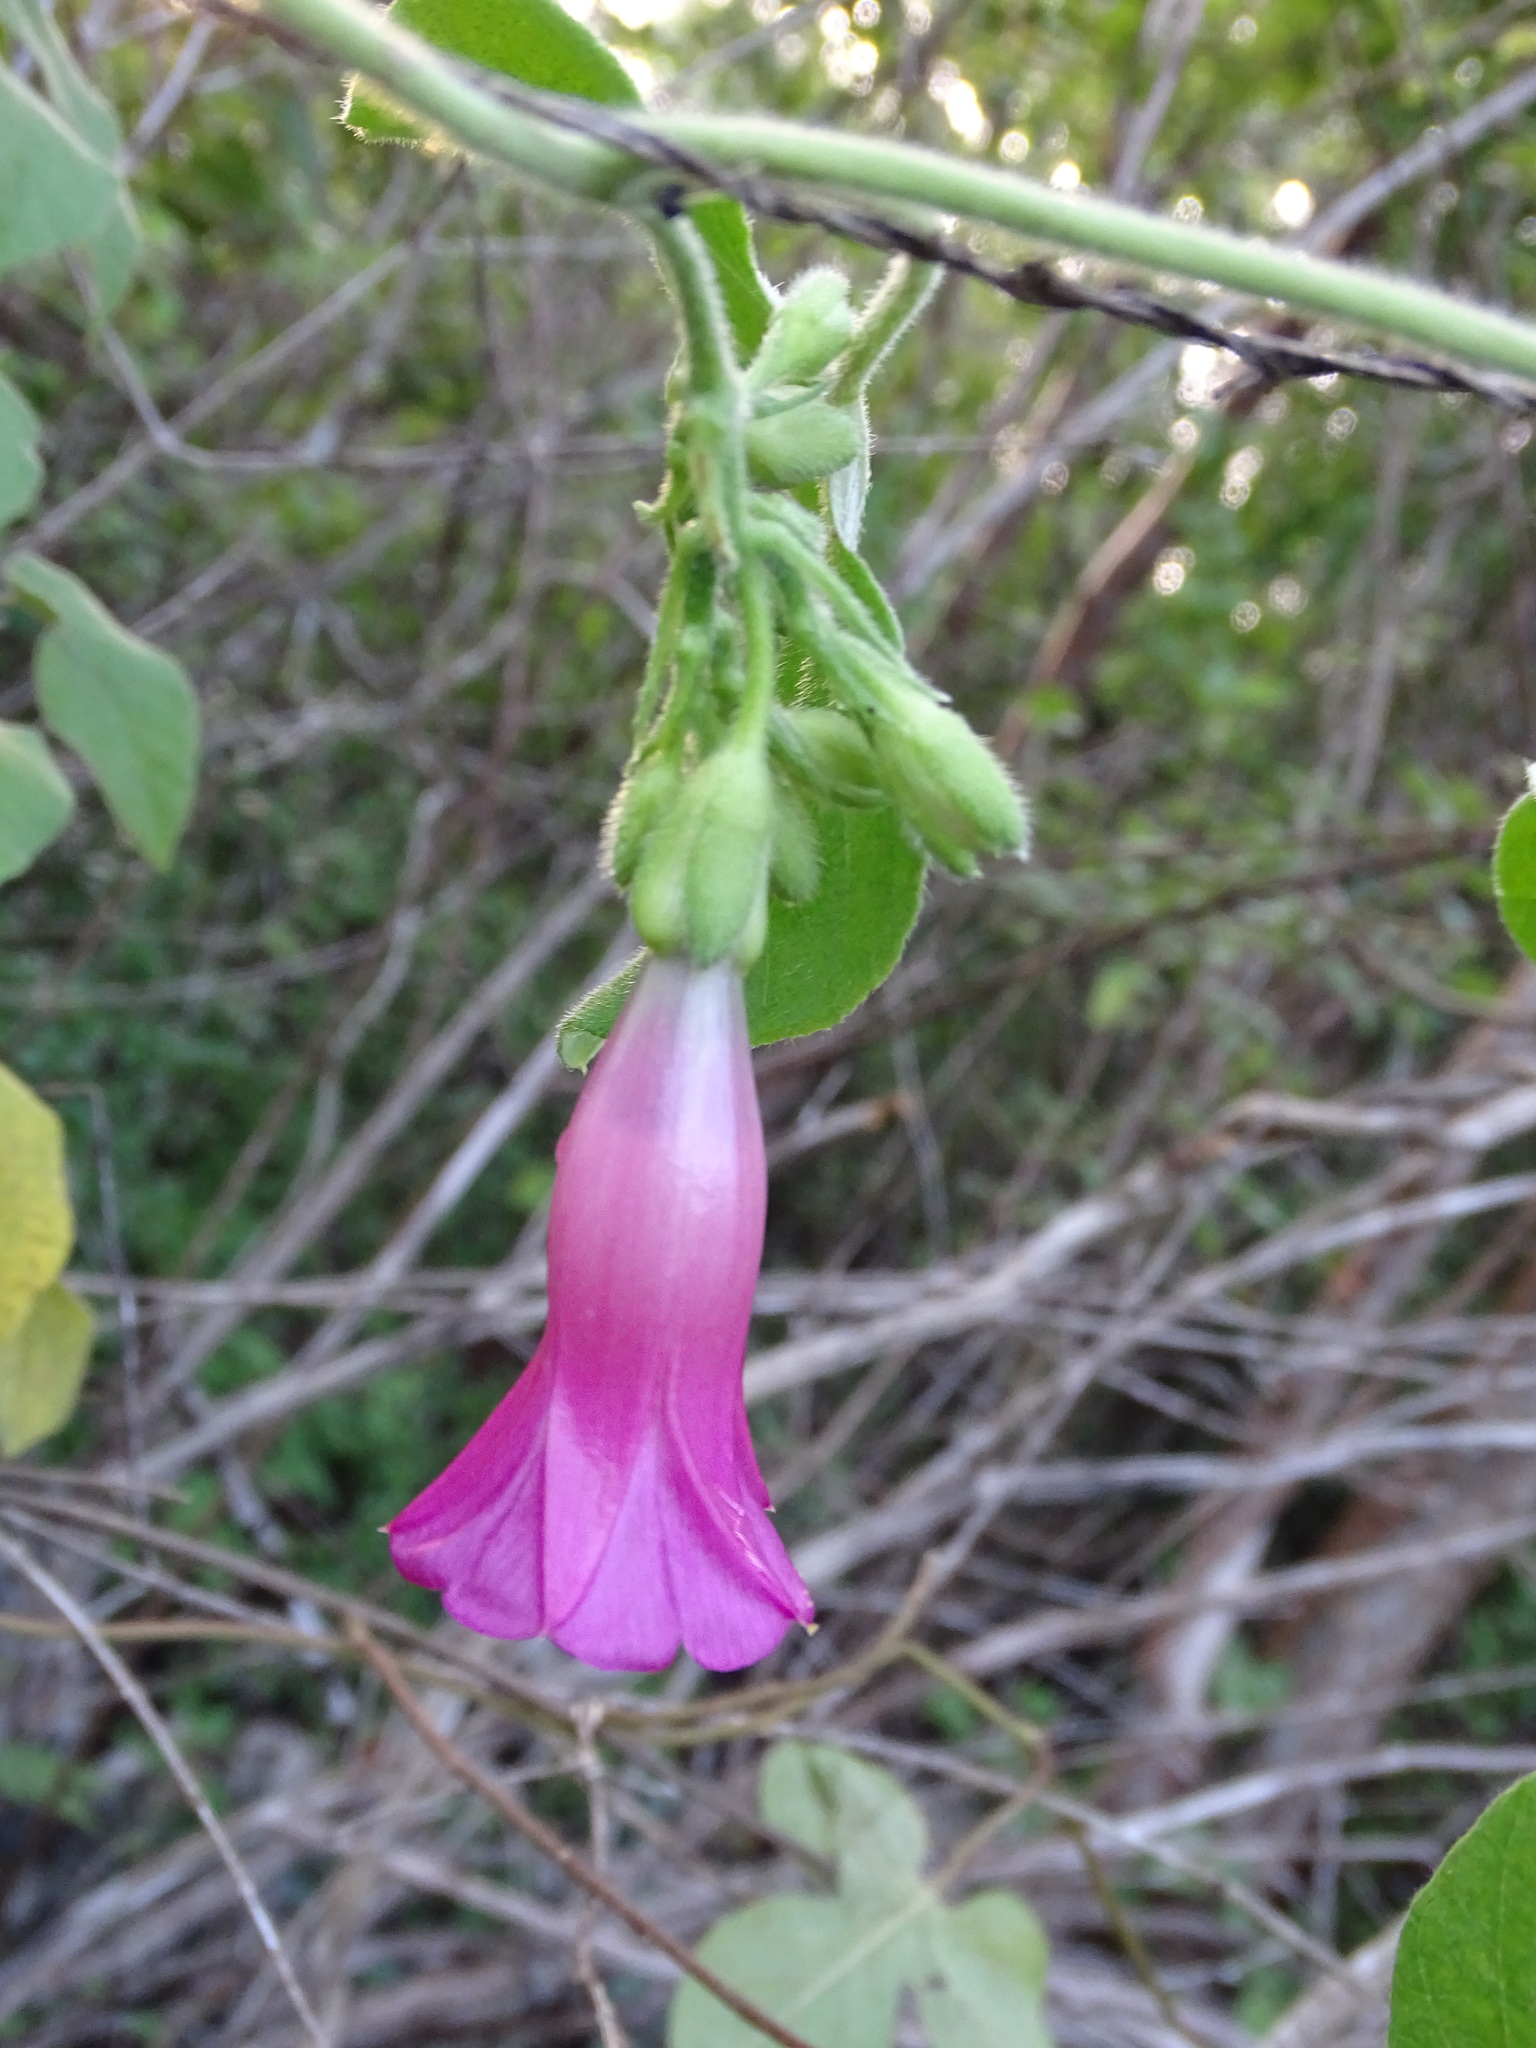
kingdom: Plantae
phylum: Tracheophyta
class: Magnoliopsida
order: Solanales
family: Convolvulaceae
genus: Ipomoea
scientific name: Ipomoea peteri
